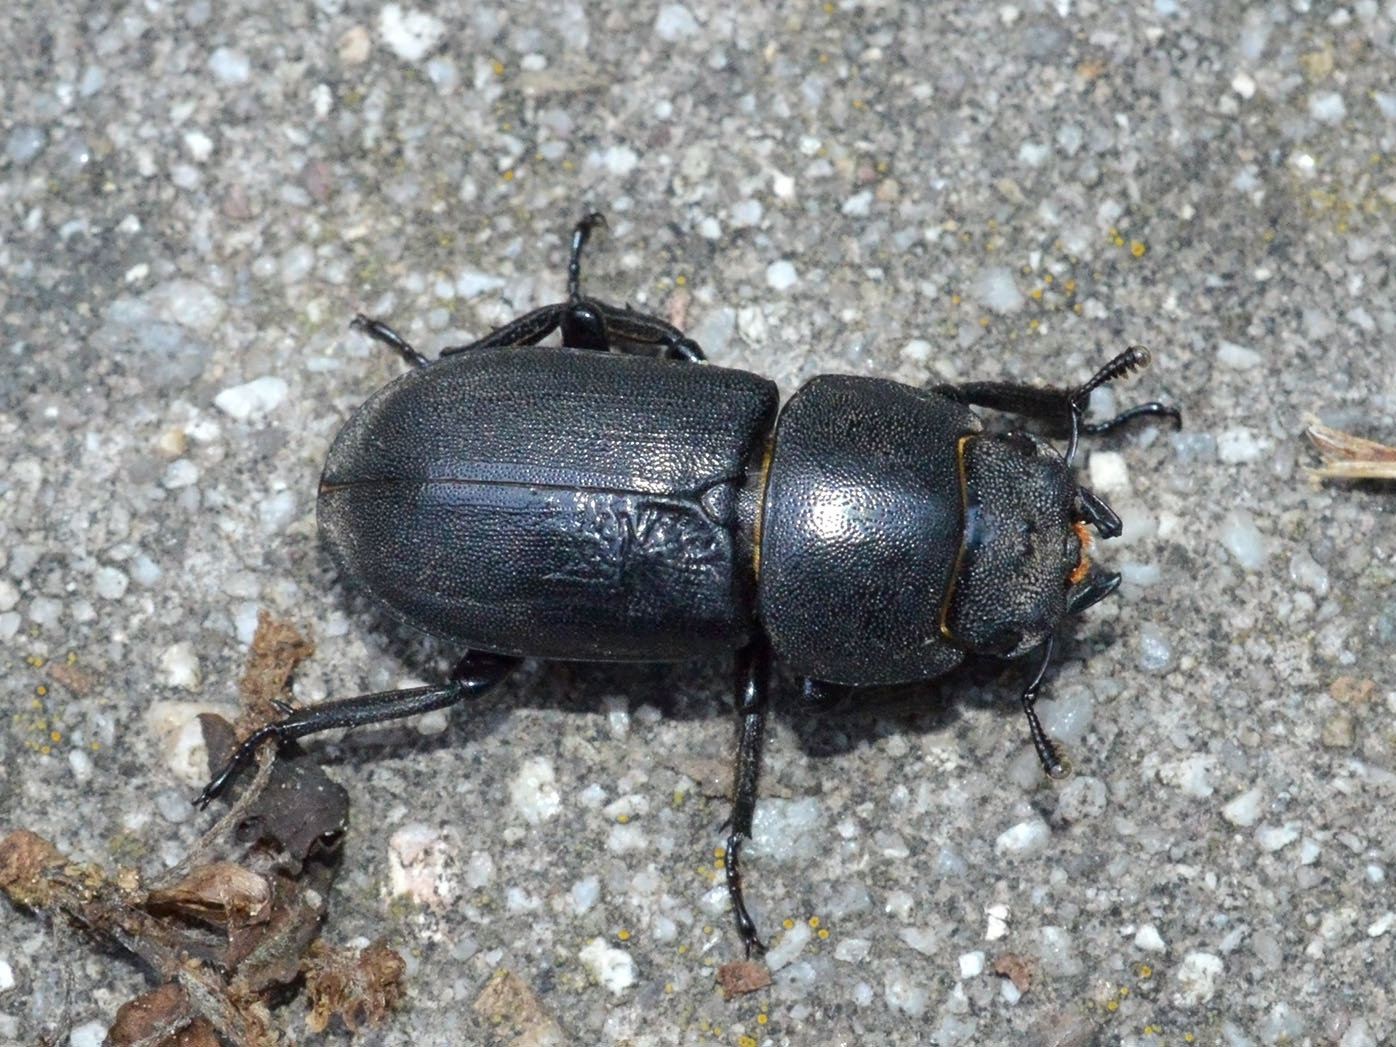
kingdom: Animalia
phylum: Arthropoda
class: Insecta
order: Coleoptera
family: Lucanidae
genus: Dorcus
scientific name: Dorcus parallelipipedus
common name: Lesser stag beetle
